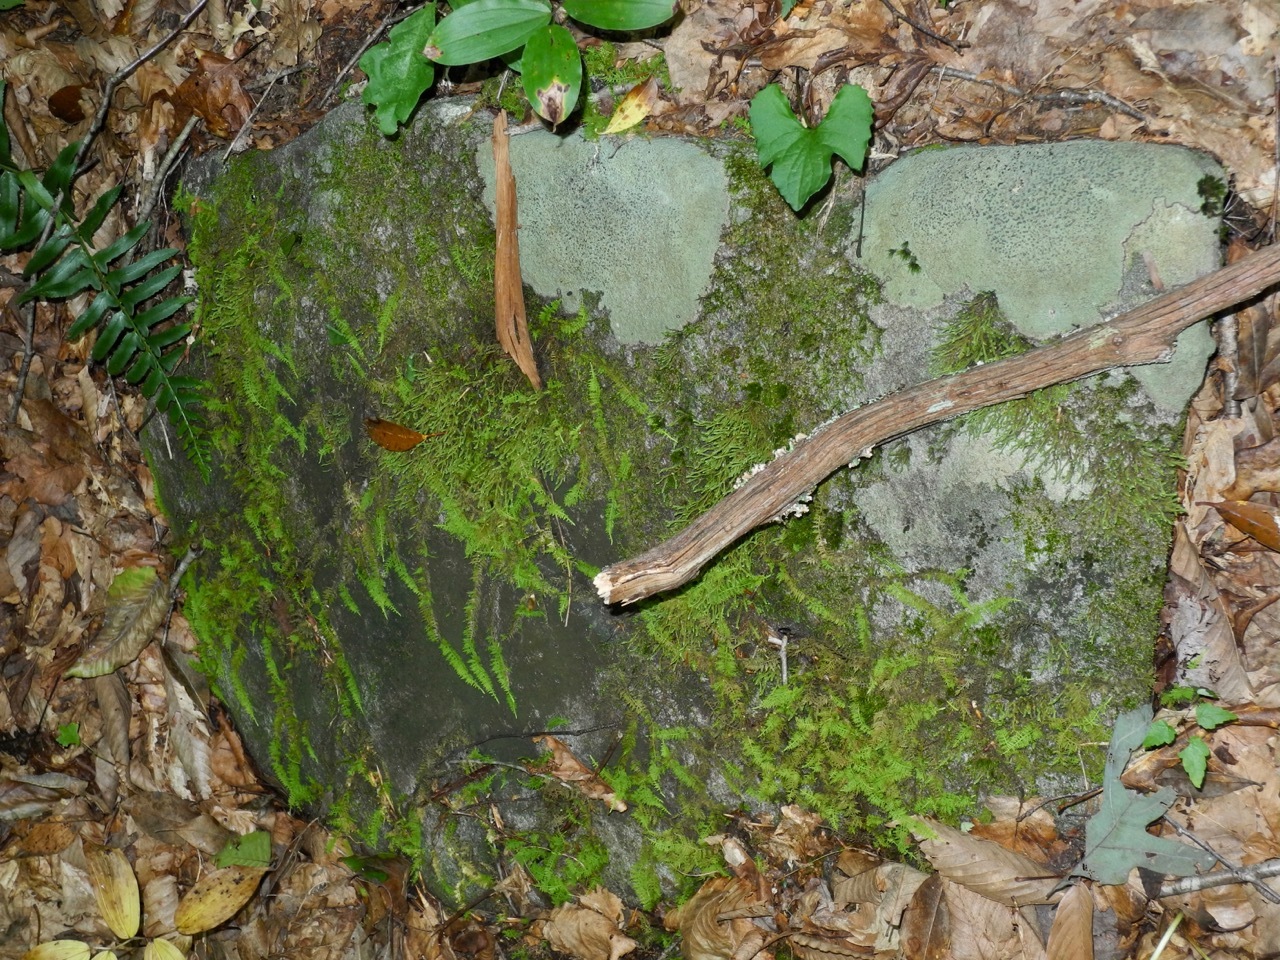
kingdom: Fungi
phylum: Ascomycota
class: Lecanoromycetes
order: Lecideales
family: Lecideaceae
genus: Porpidia
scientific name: Porpidia albocaerulescens
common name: Smokey-eyed boulder lichen
